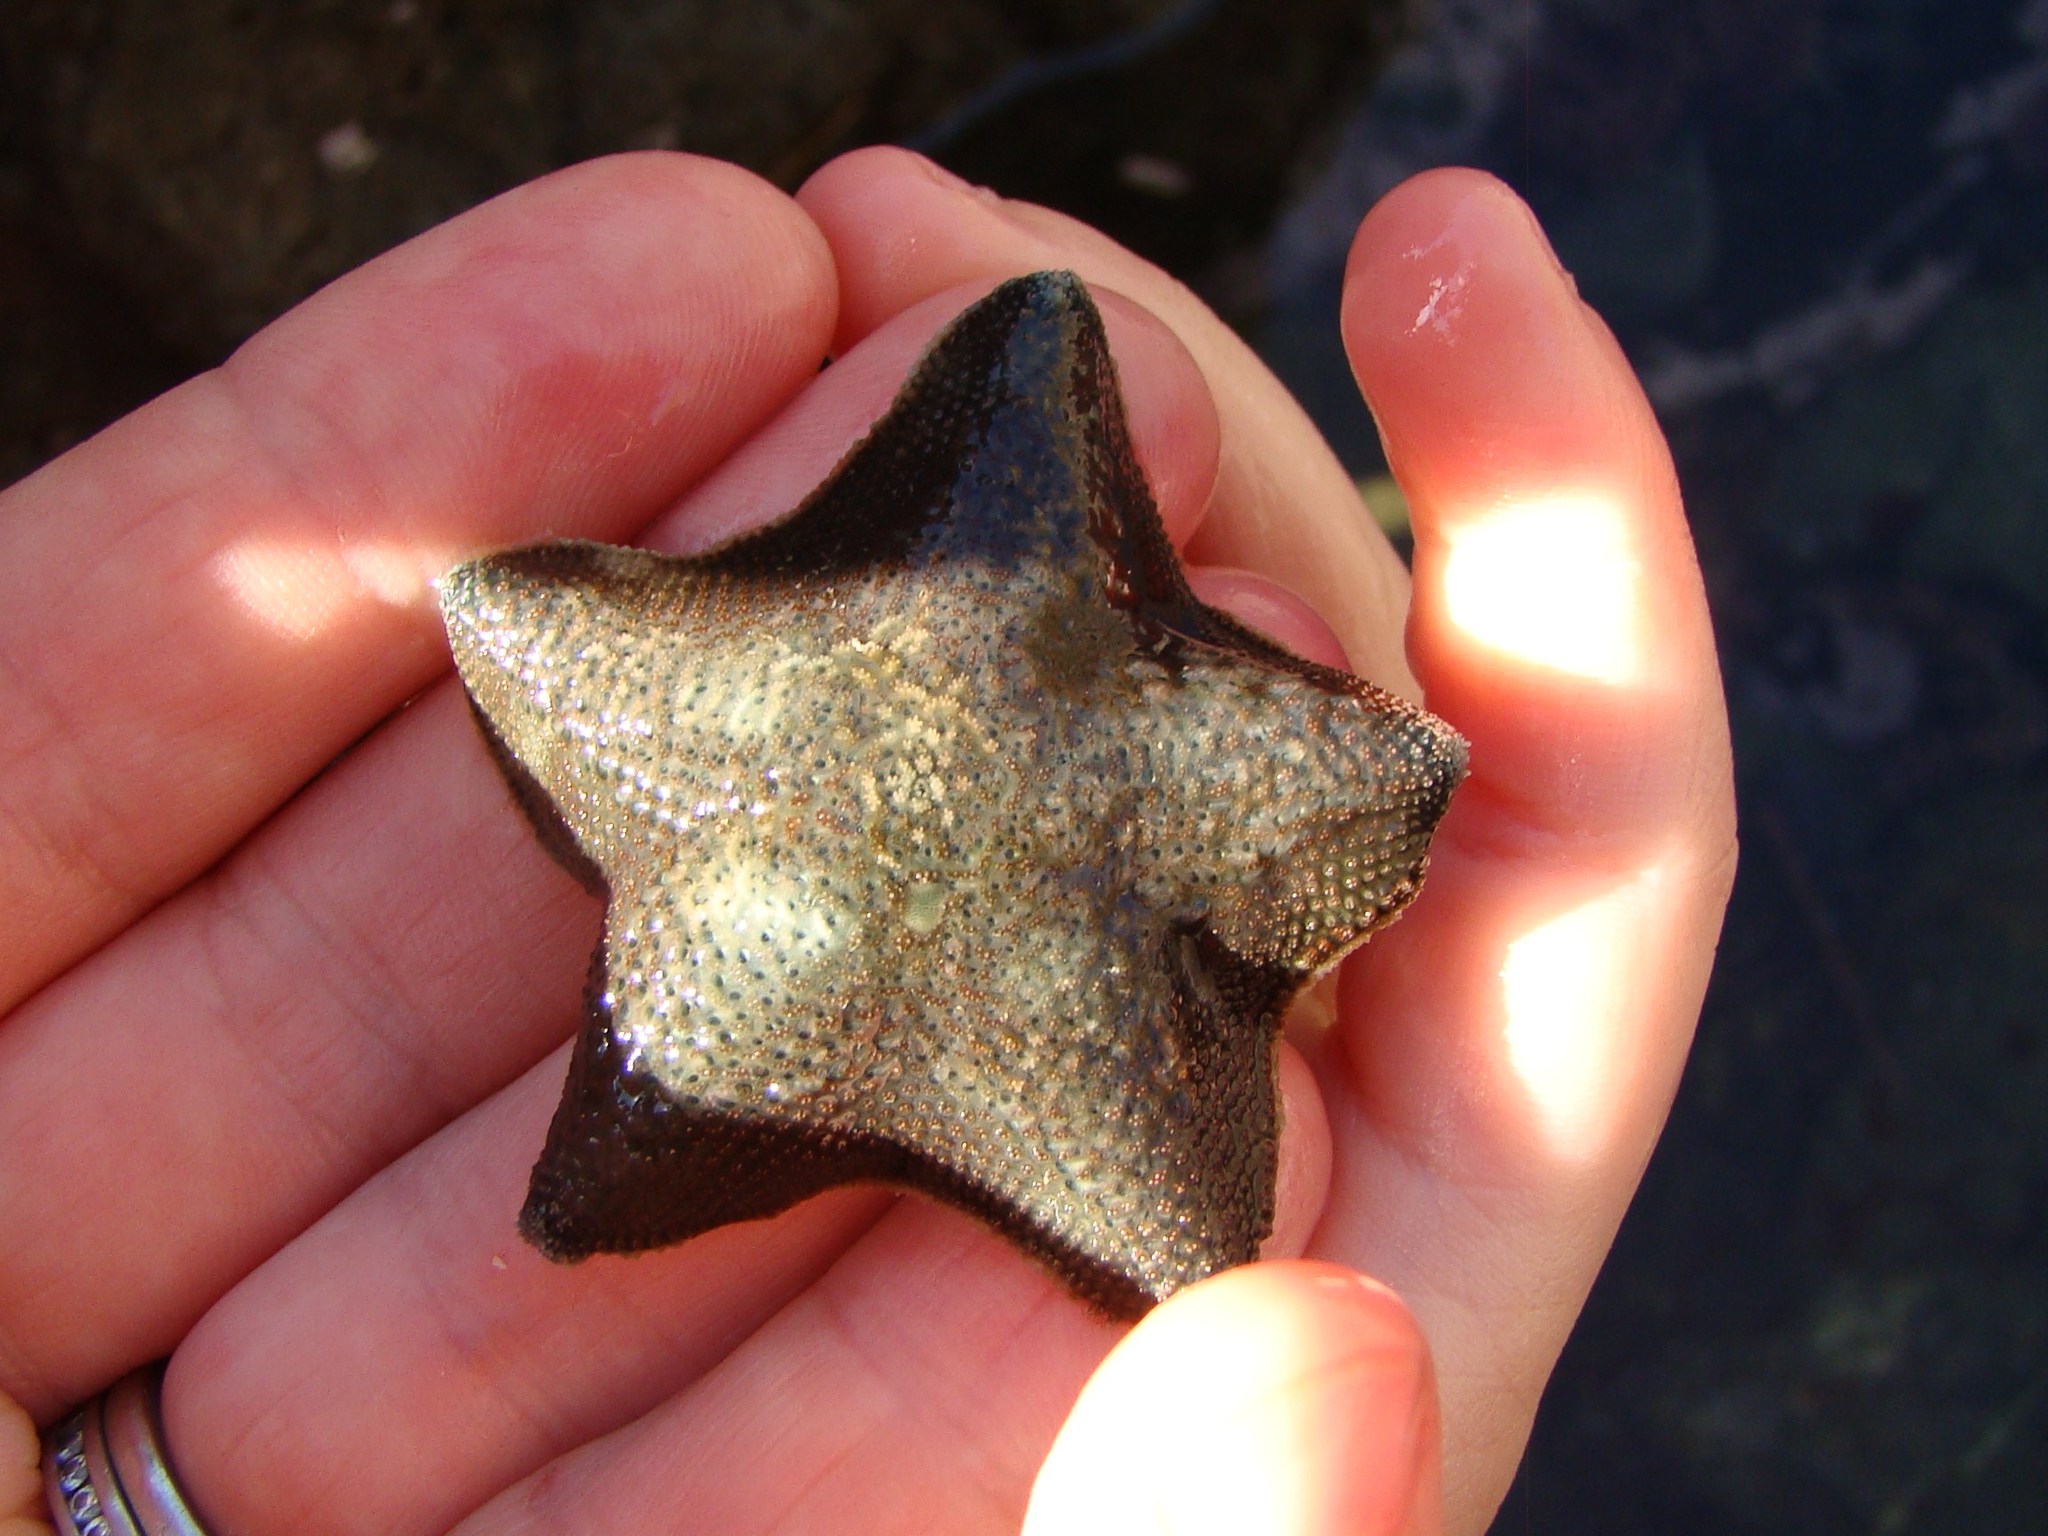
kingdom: Animalia
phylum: Echinodermata
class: Asteroidea
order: Valvatida
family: Asterinidae
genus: Patiriella
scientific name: Patiriella regularis
